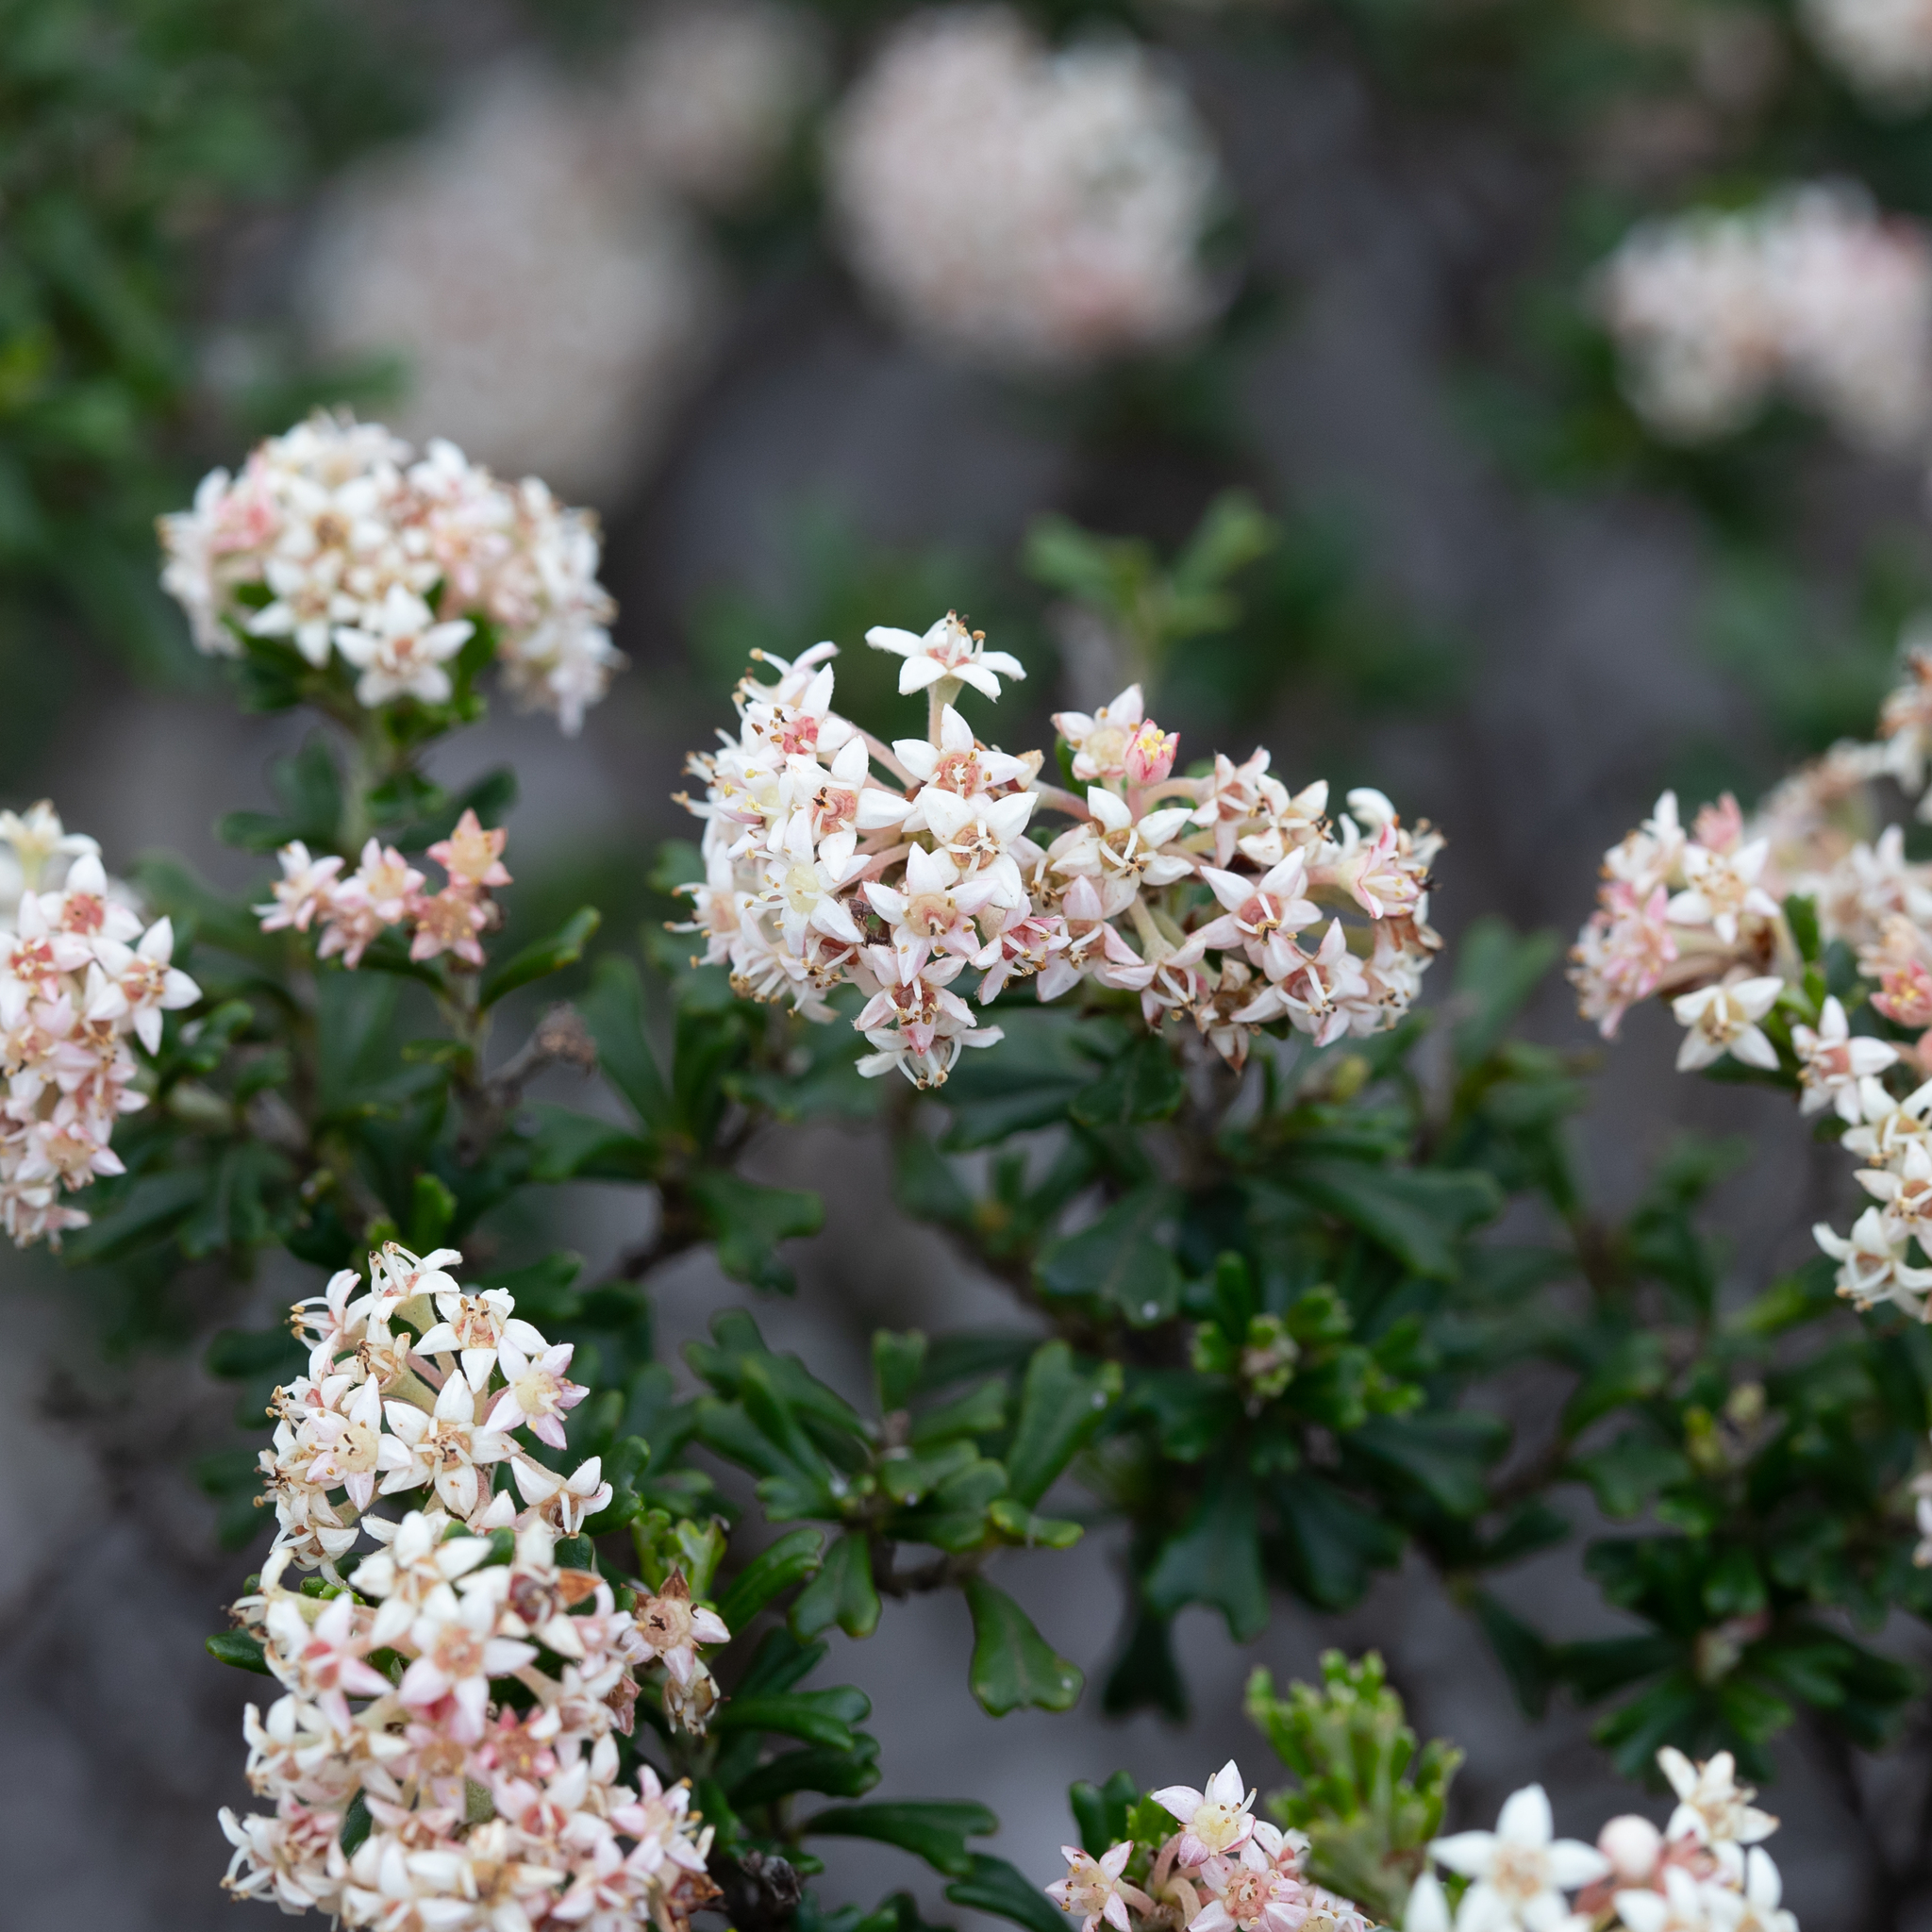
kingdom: Plantae
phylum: Tracheophyta
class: Magnoliopsida
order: Rosales
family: Rhamnaceae
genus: Pomaderris
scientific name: Pomaderris obcordata
